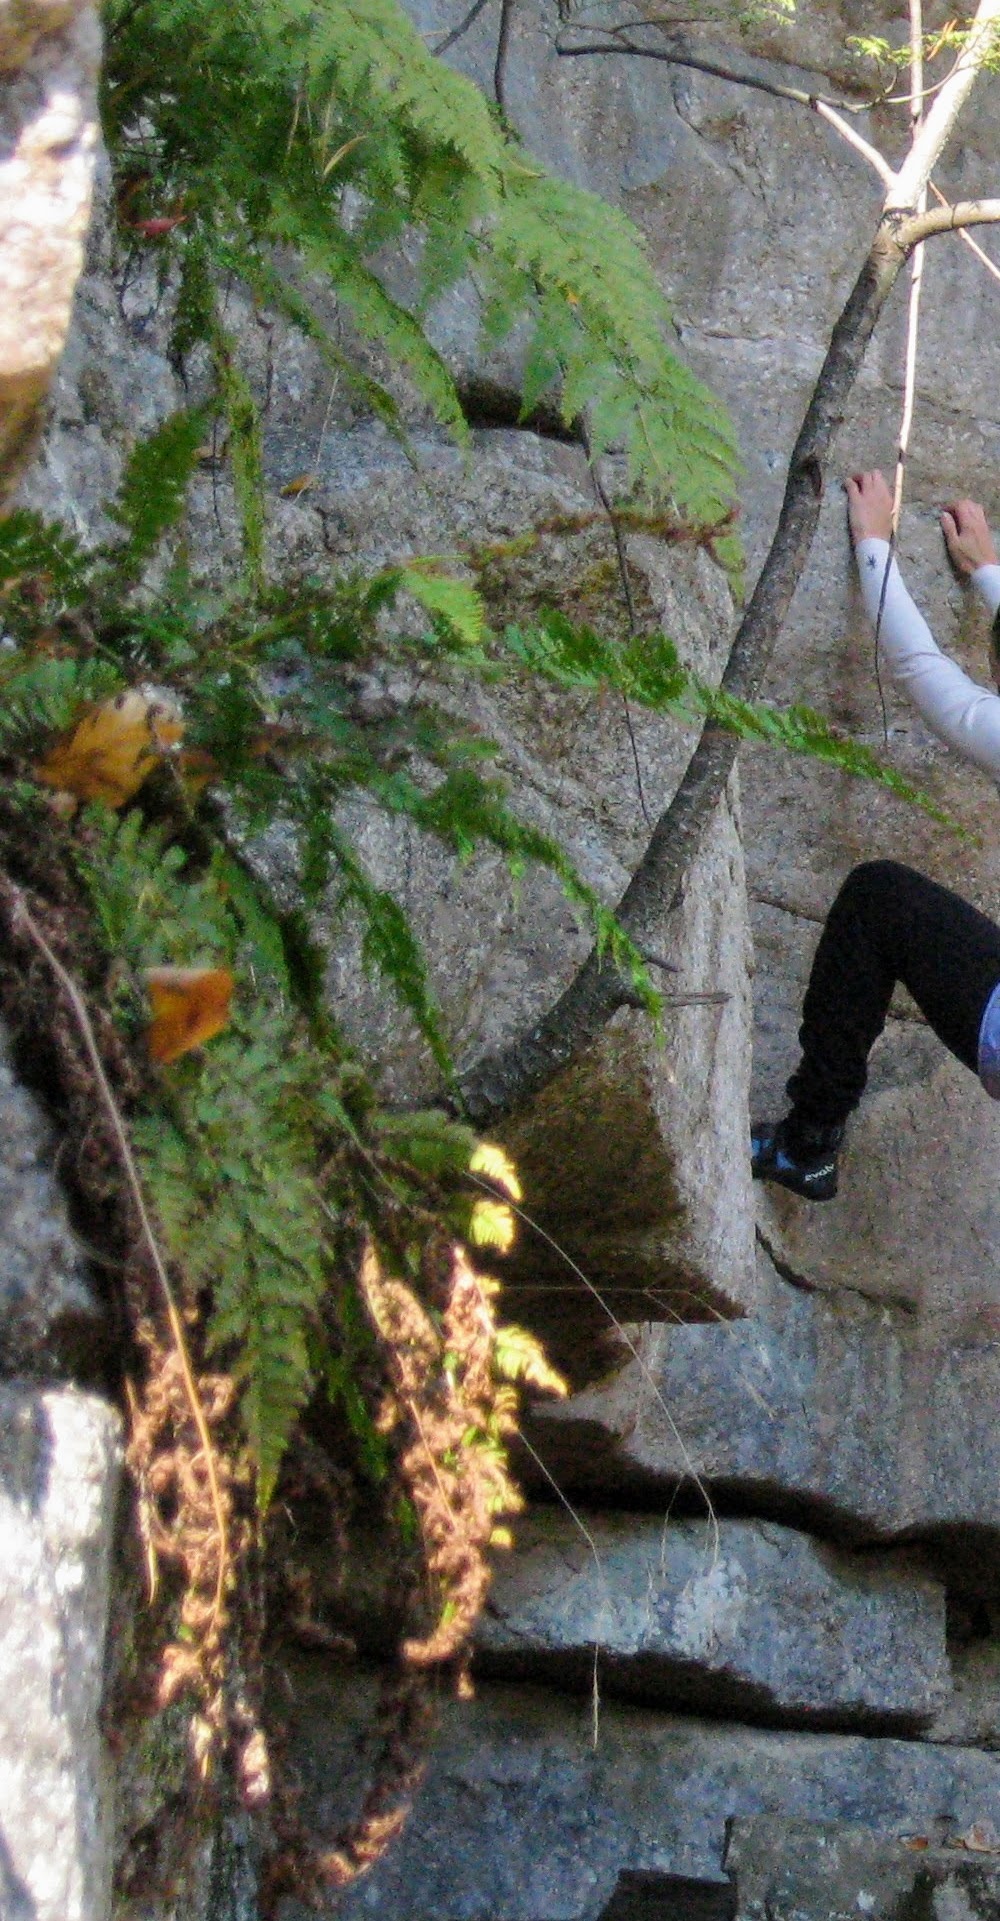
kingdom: Plantae
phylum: Tracheophyta
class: Polypodiopsida
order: Polypodiales
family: Dryopteridaceae
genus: Dryopteris
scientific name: Dryopteris
